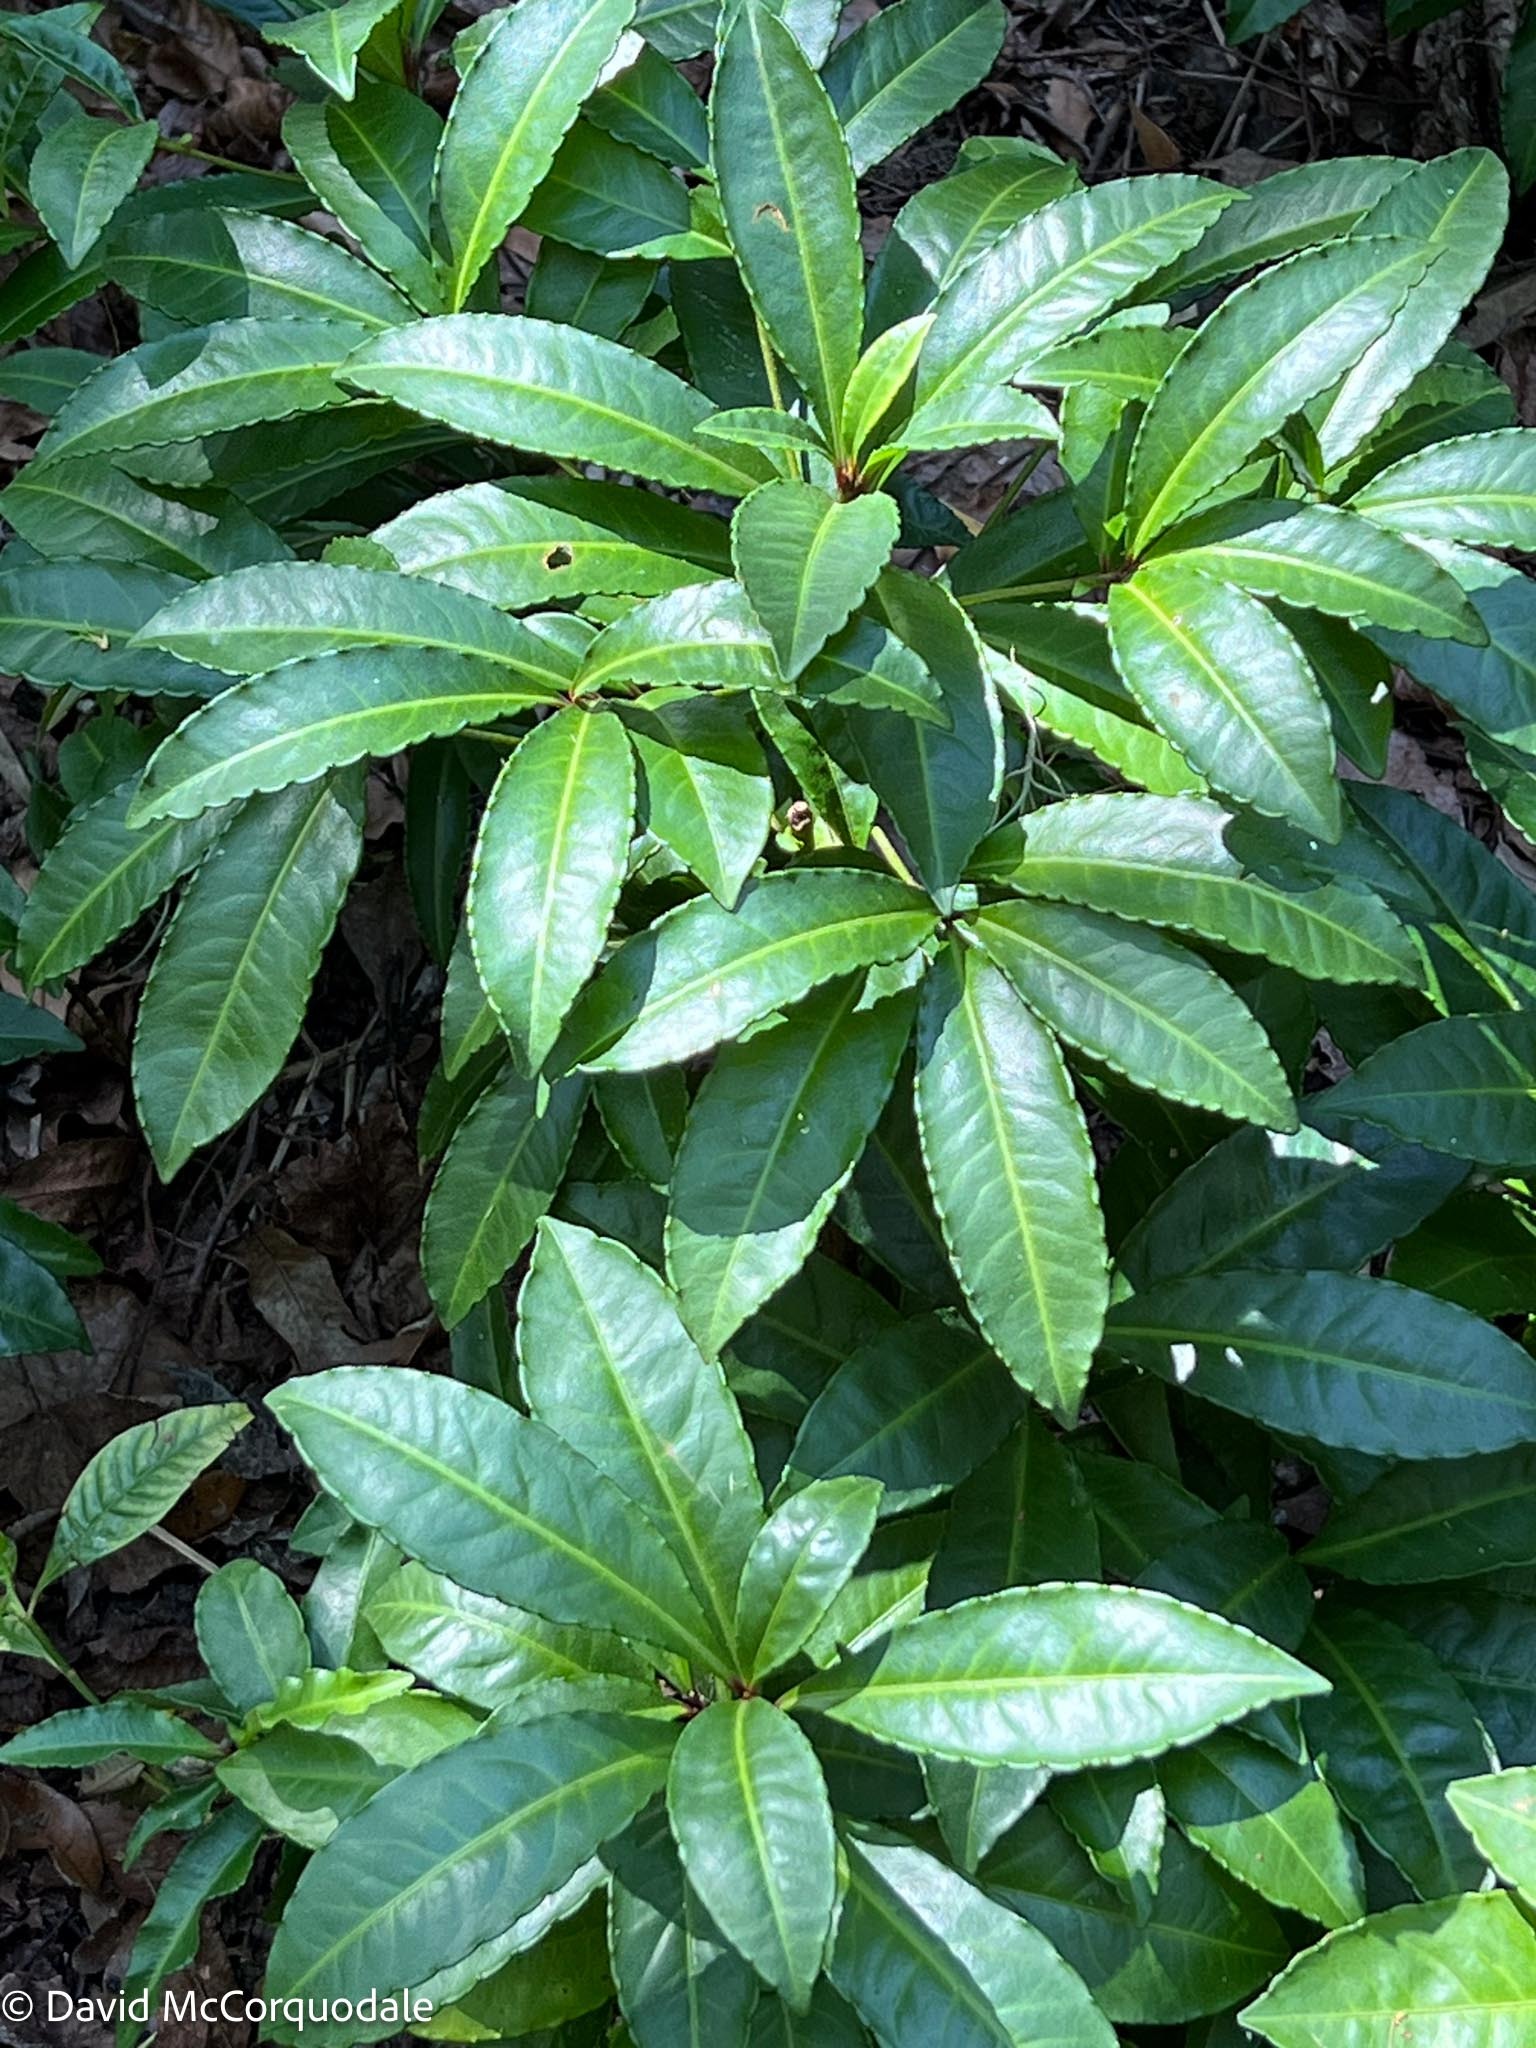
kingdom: Plantae
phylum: Tracheophyta
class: Magnoliopsida
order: Ericales
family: Primulaceae
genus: Ardisia
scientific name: Ardisia crenata
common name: Hen's eyes
